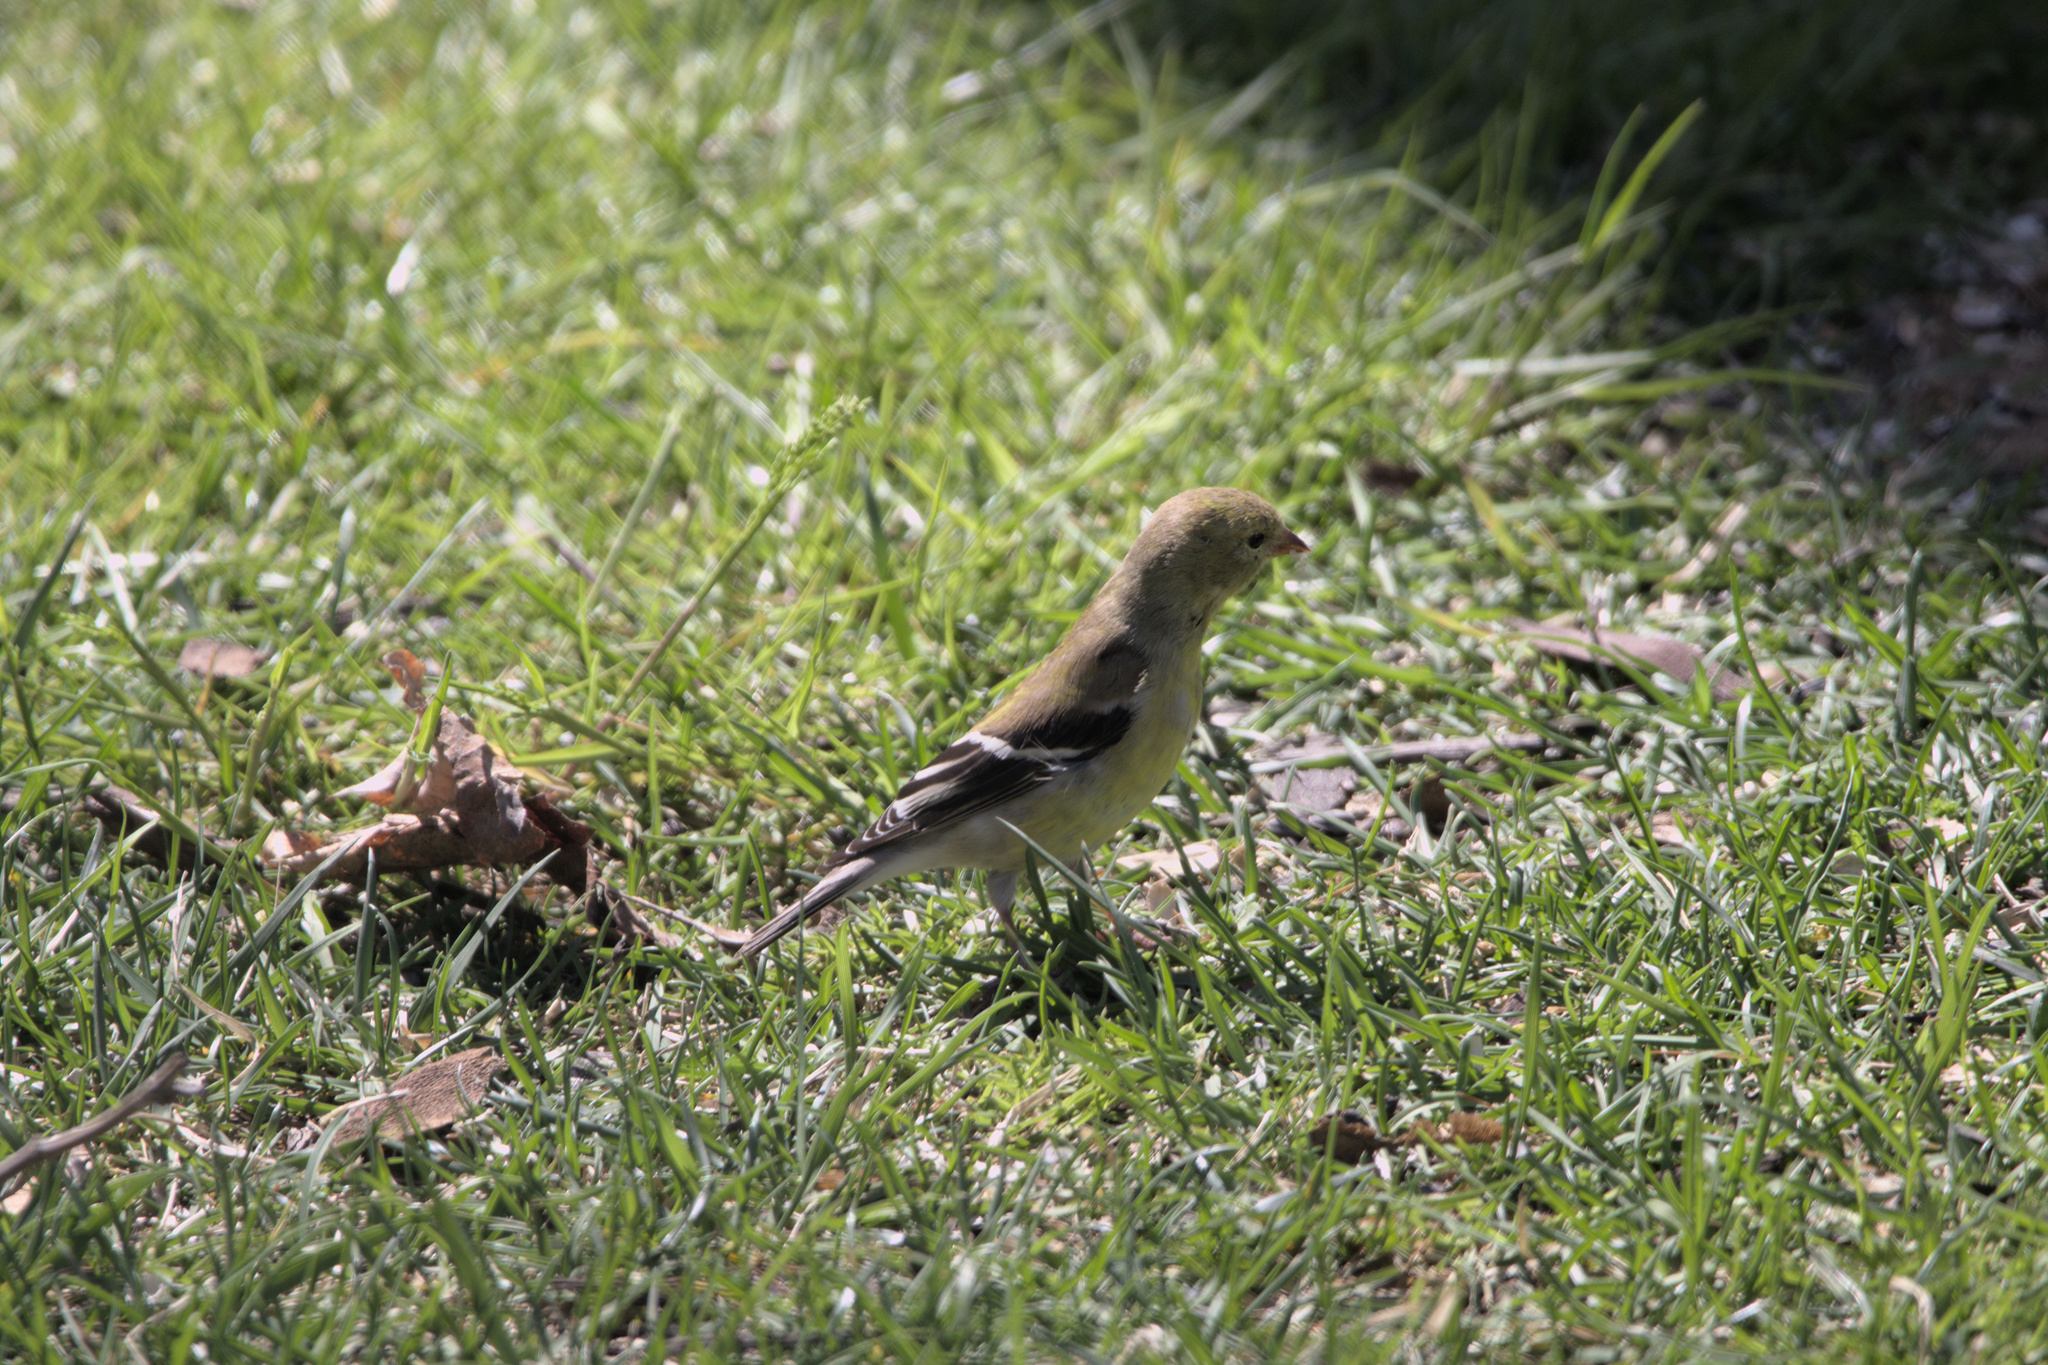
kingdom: Animalia
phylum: Chordata
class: Aves
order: Passeriformes
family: Fringillidae
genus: Spinus
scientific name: Spinus tristis
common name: American goldfinch
